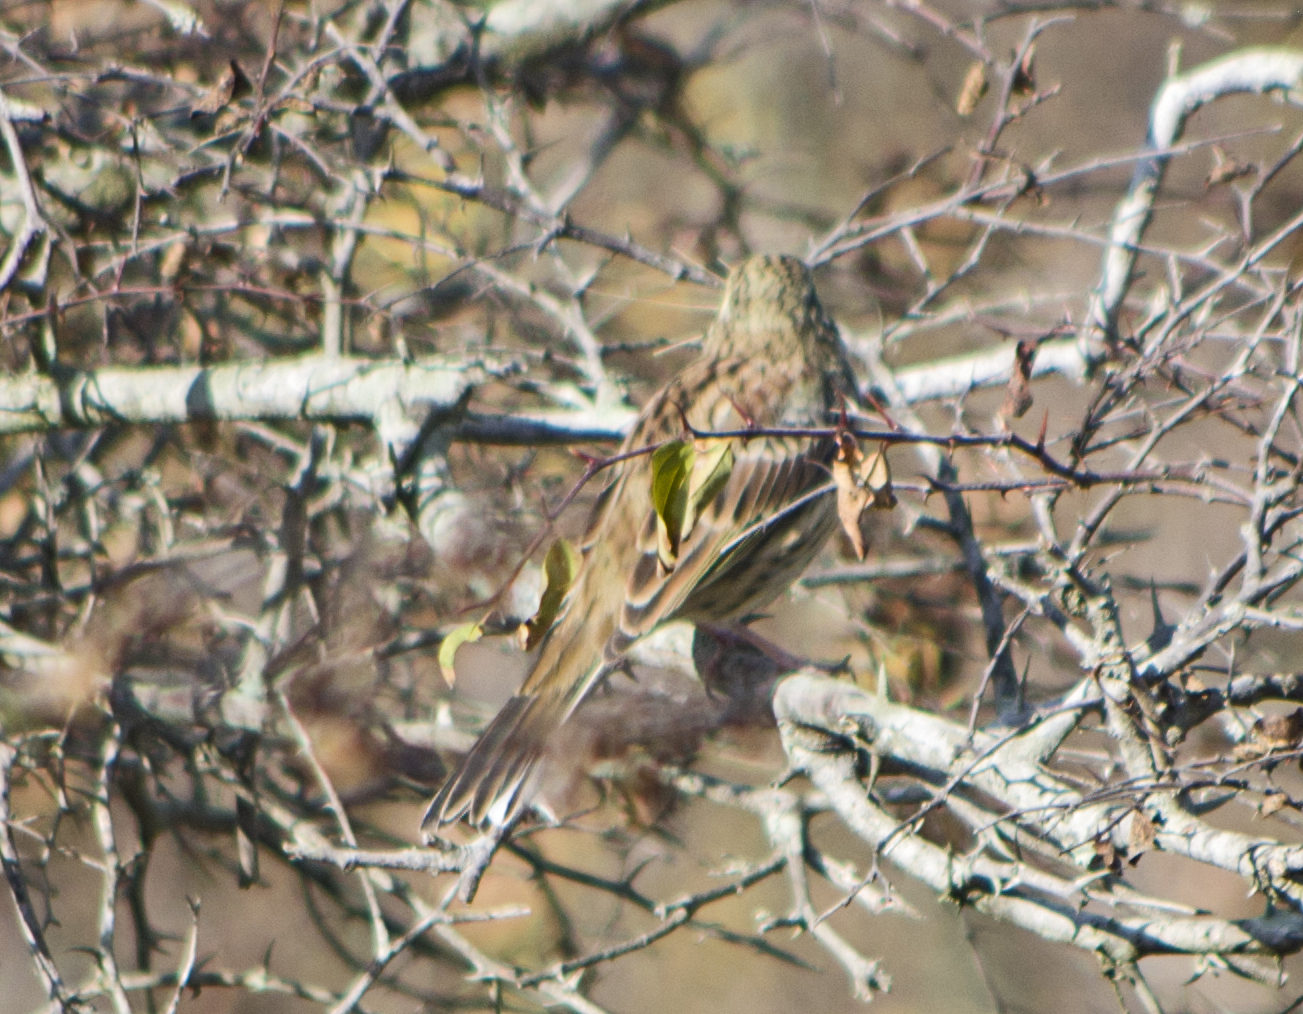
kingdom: Animalia
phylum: Chordata
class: Aves
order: Passeriformes
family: Emberizidae
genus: Emberiza
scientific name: Emberiza cirlus
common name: Cirl bunting
